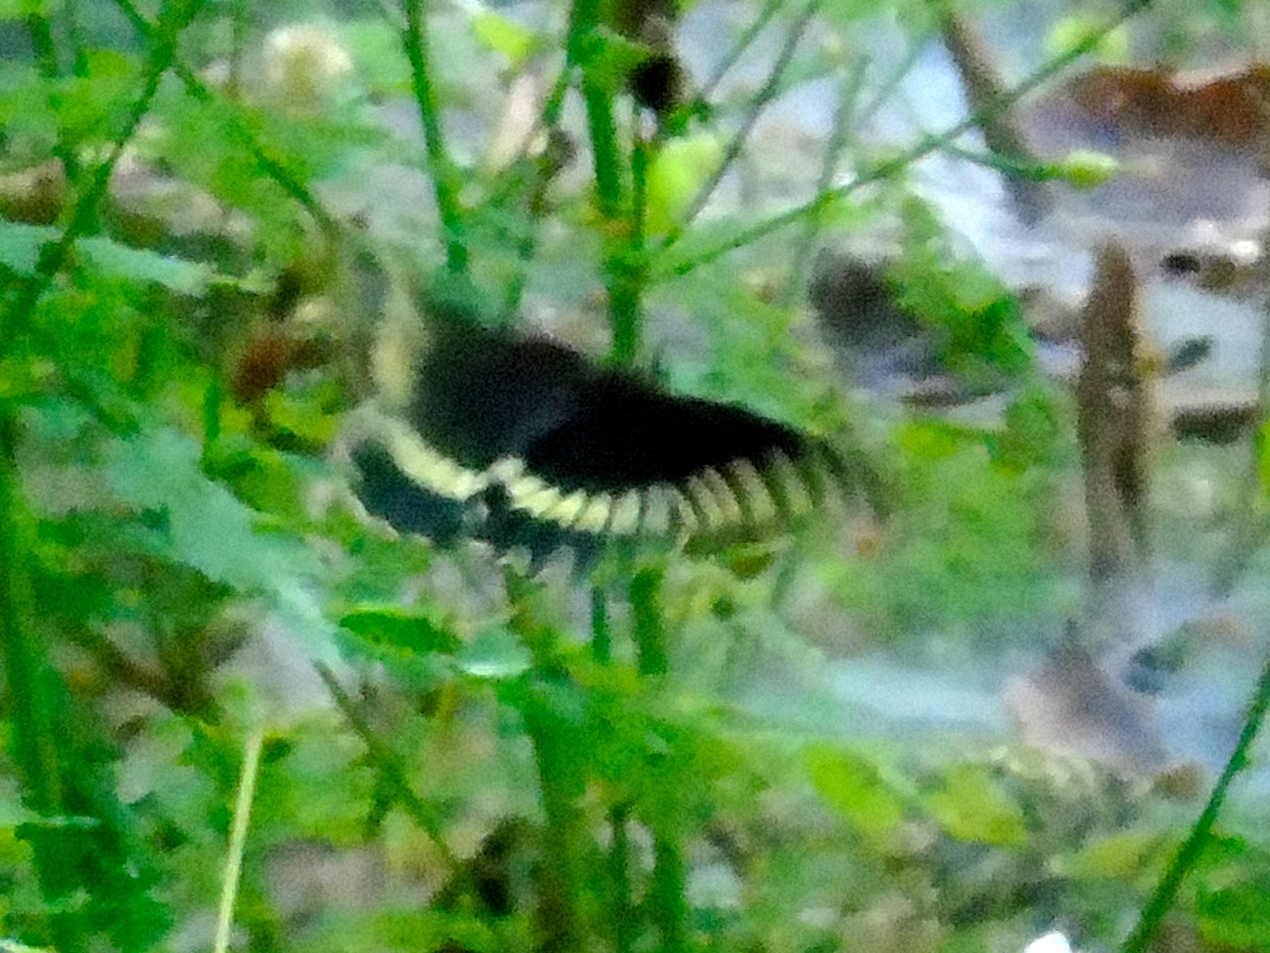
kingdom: Animalia
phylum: Arthropoda
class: Insecta
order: Lepidoptera
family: Papilionidae
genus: Battus
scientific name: Battus polydamas
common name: Polydamas swallowtail
